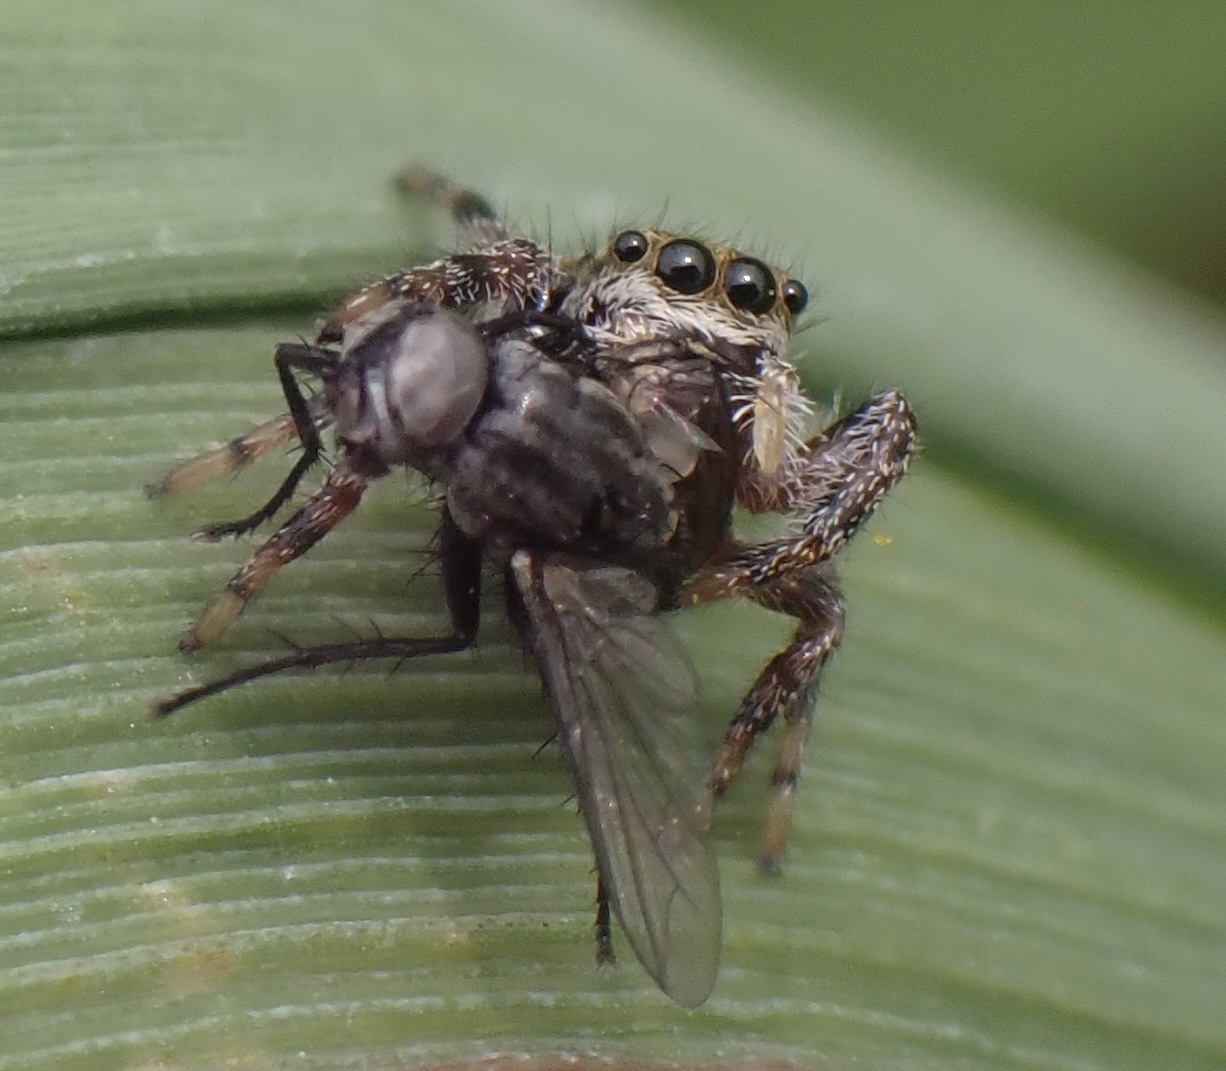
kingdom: Animalia
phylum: Arthropoda
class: Arachnida
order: Araneae
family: Salticidae
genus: Phidippus
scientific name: Phidippus clarus
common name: Brilliant jumping spider
